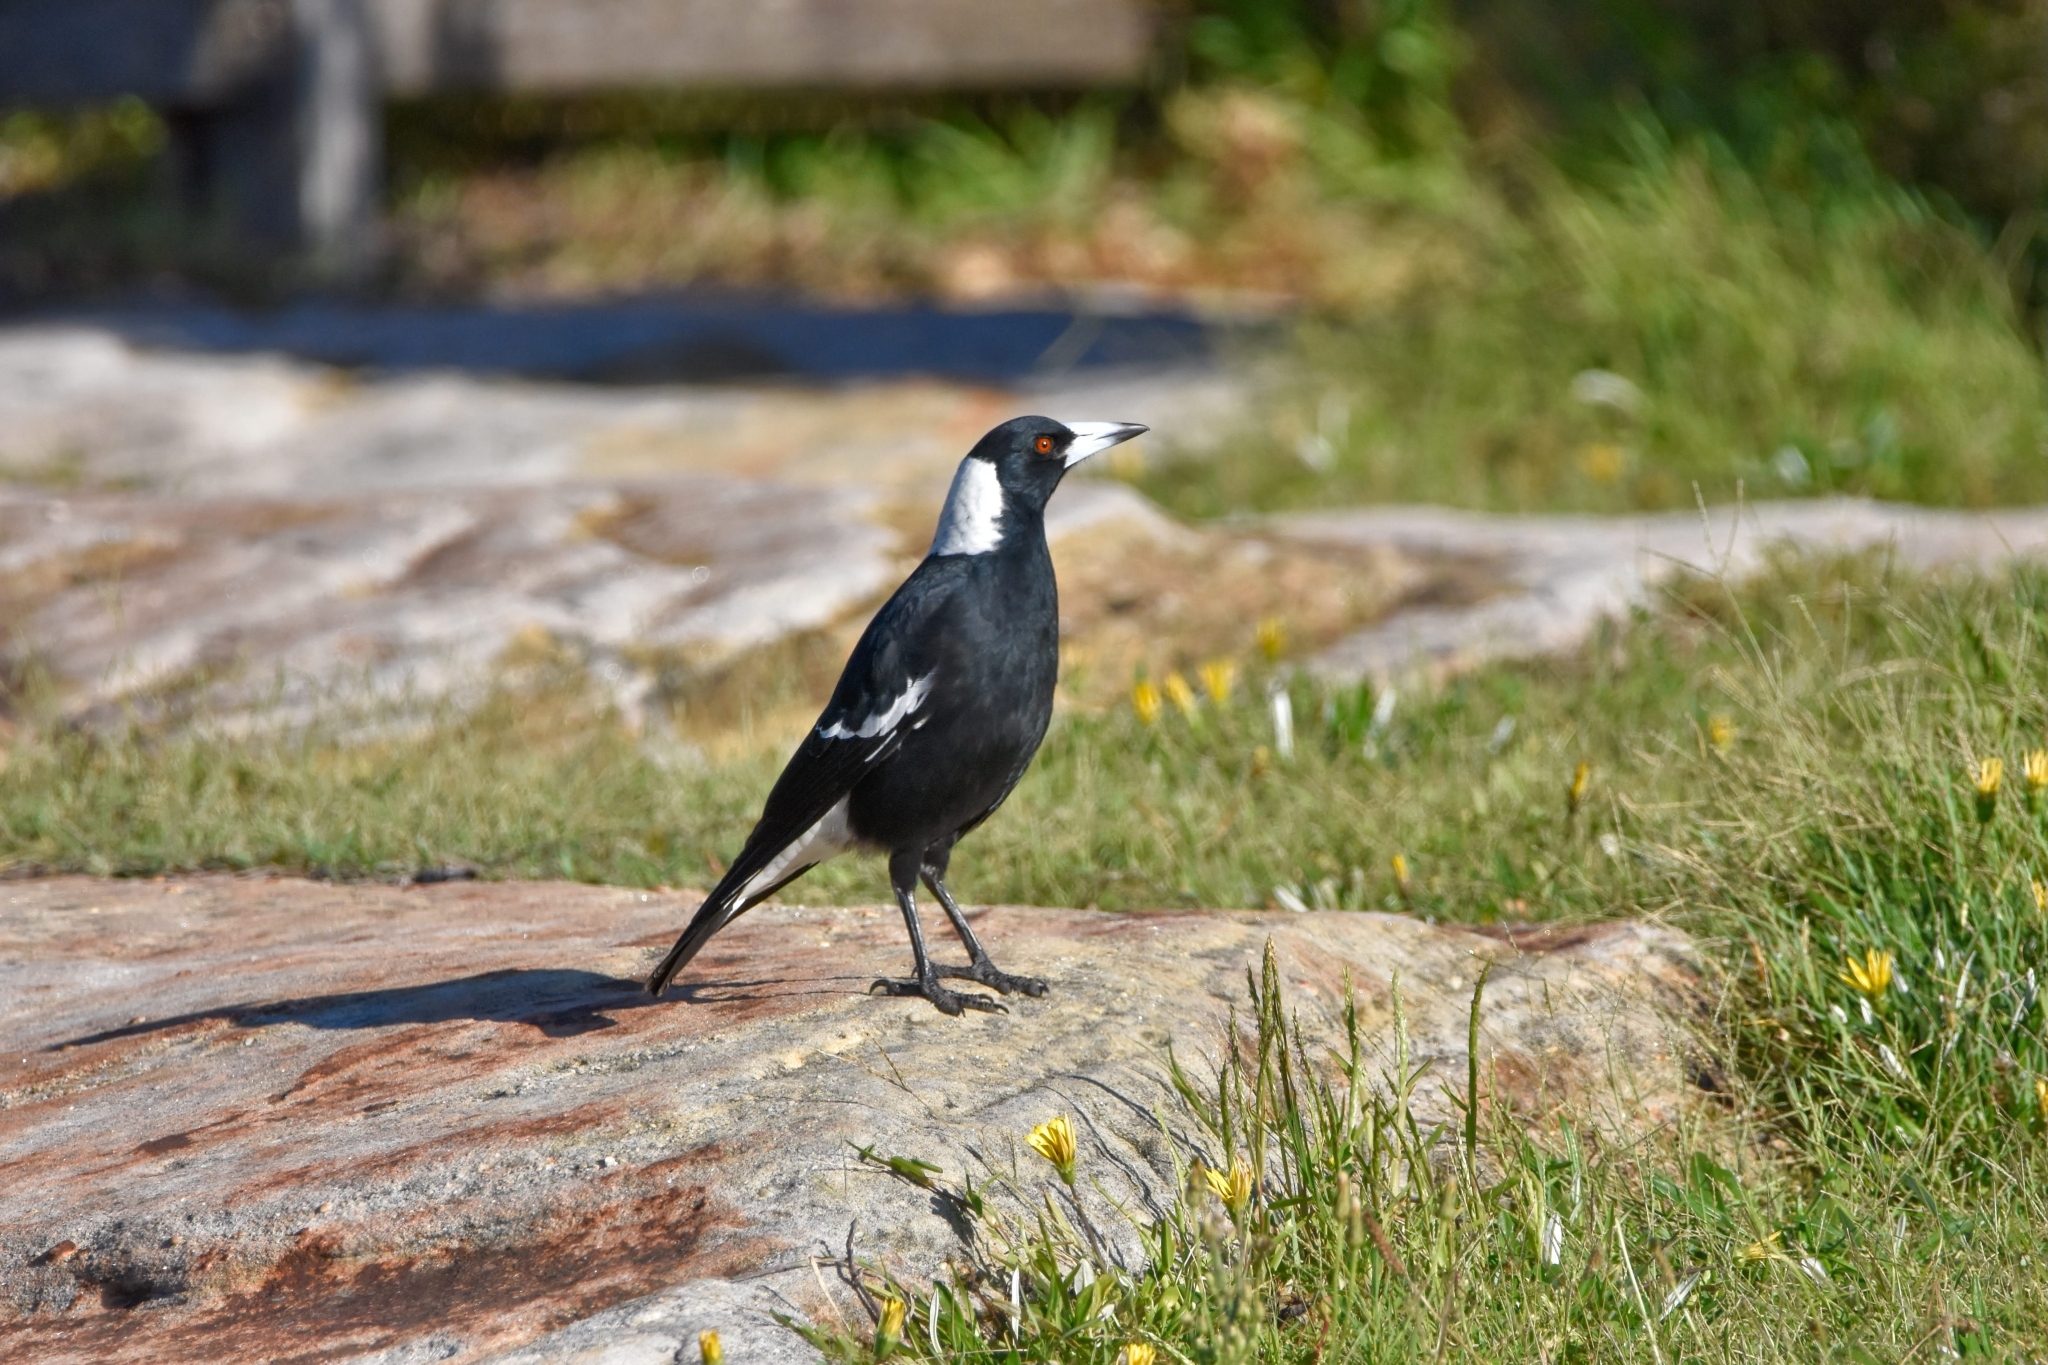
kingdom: Animalia
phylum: Chordata
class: Aves
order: Passeriformes
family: Cracticidae
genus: Gymnorhina
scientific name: Gymnorhina tibicen
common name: Australian magpie
